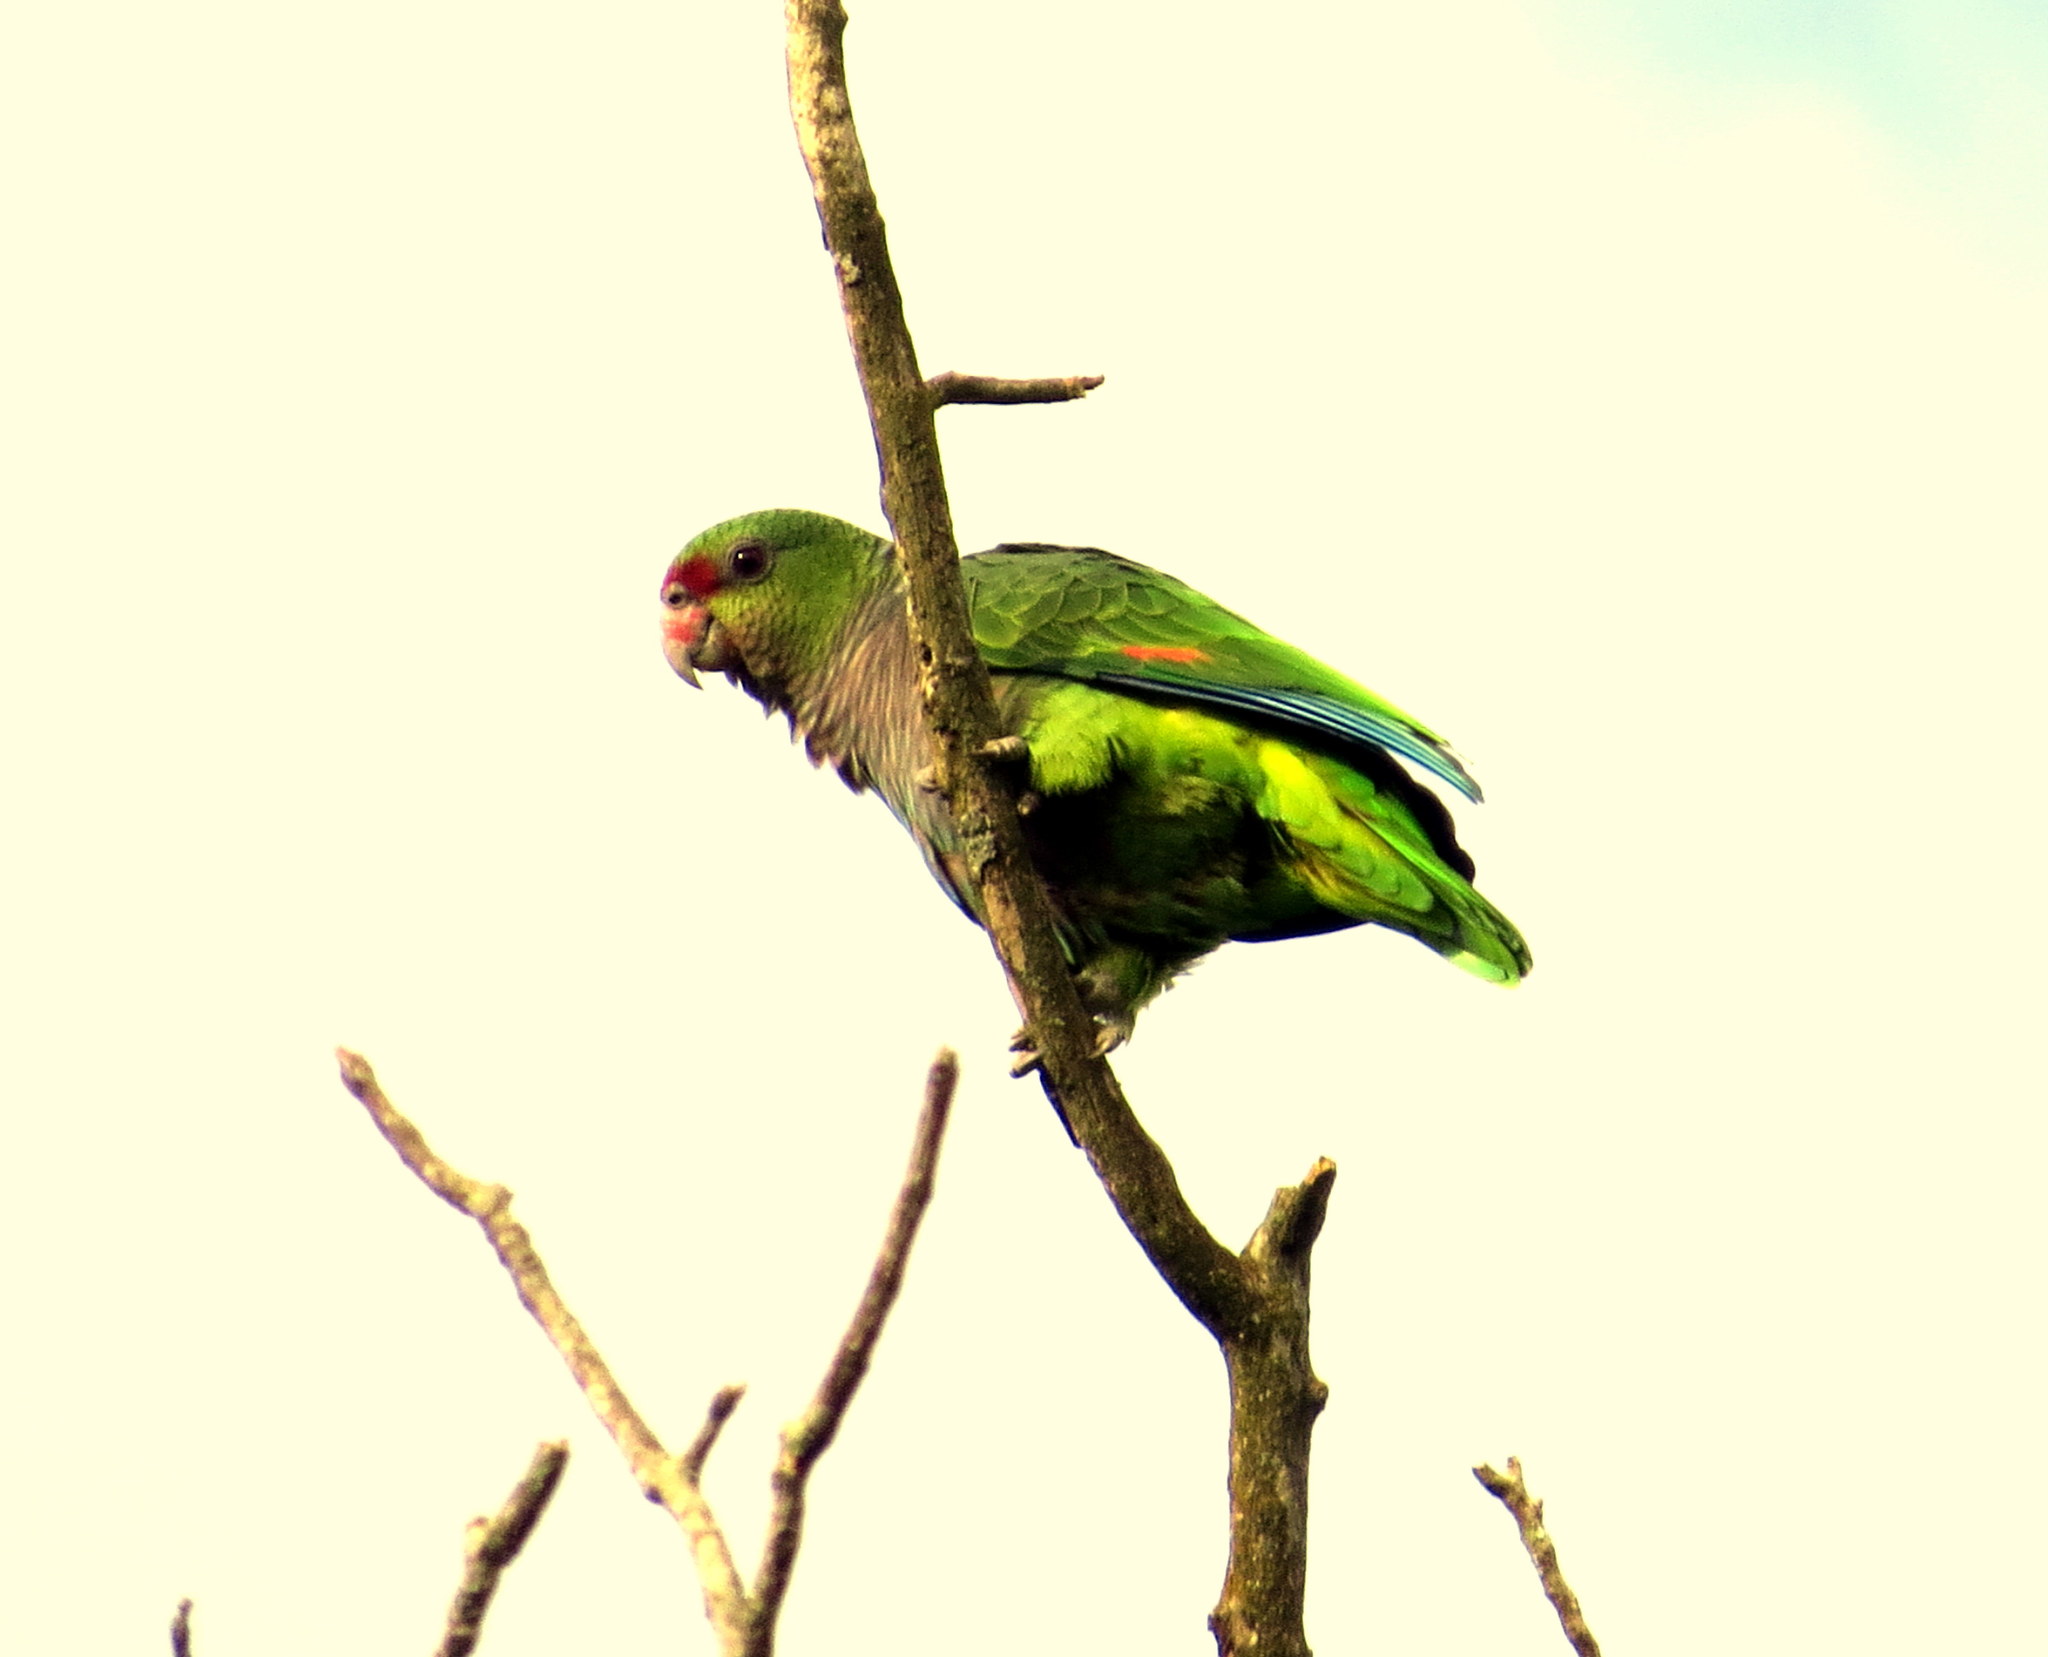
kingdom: Animalia
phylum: Chordata
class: Aves
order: Psittaciformes
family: Psittacidae
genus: Amazona
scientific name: Amazona vinacea
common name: Vinaceous-breasted amazon
